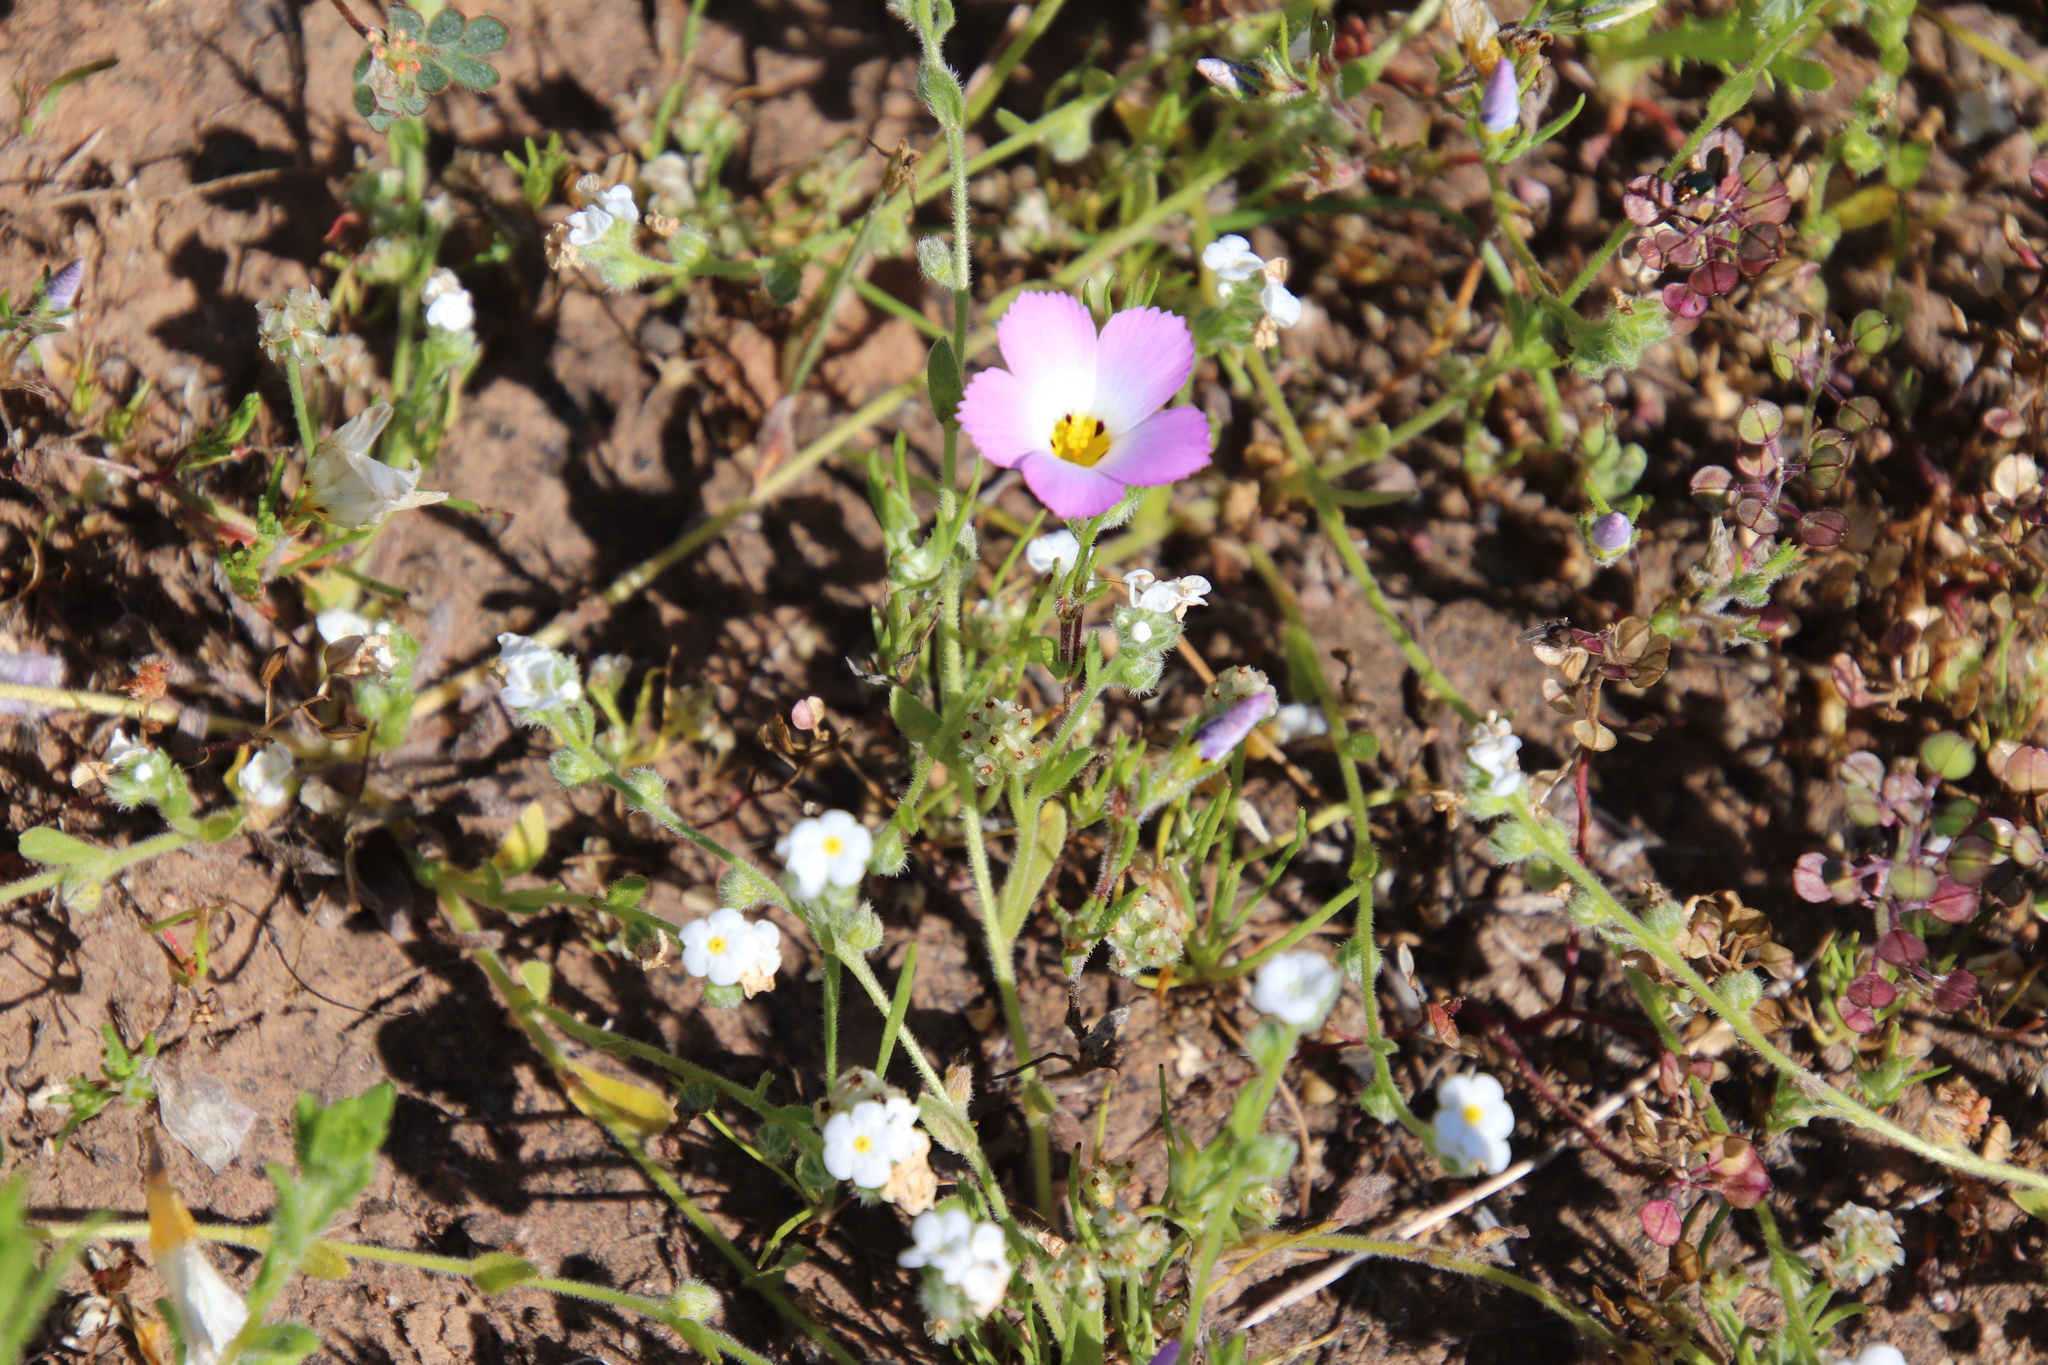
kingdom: Plantae
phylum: Tracheophyta
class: Magnoliopsida
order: Ericales
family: Polemoniaceae
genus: Linanthus
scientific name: Linanthus dianthiflorus
